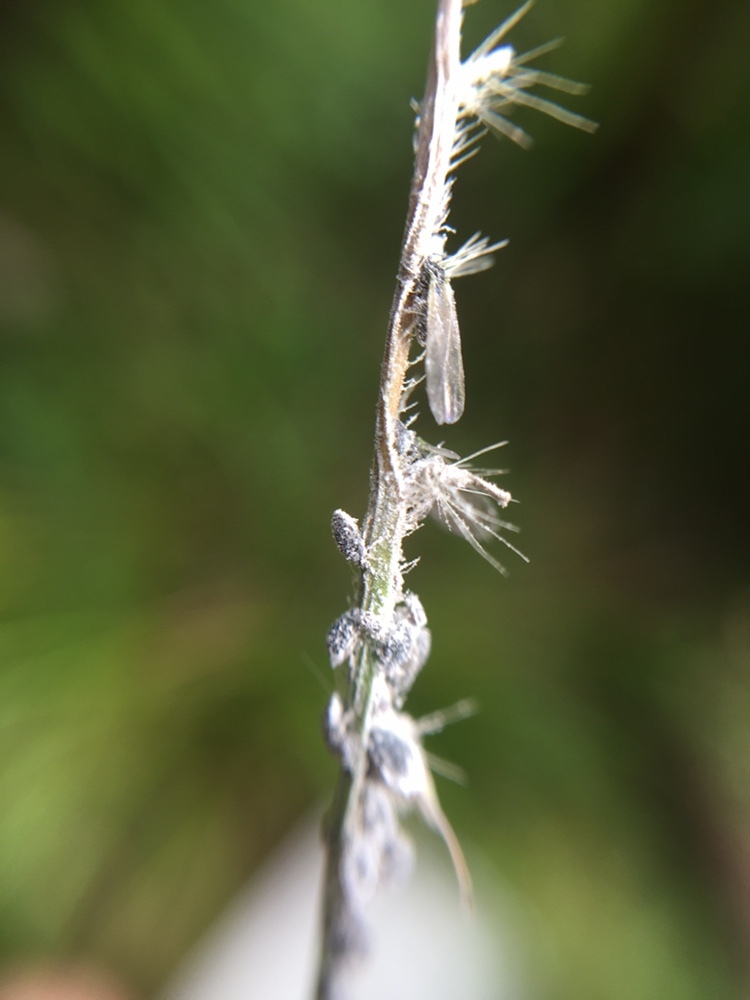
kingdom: Animalia
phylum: Arthropoda
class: Insecta
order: Hemiptera
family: Aphididae
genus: Pseudoregma
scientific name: Pseudoregma panicola
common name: Aphid
